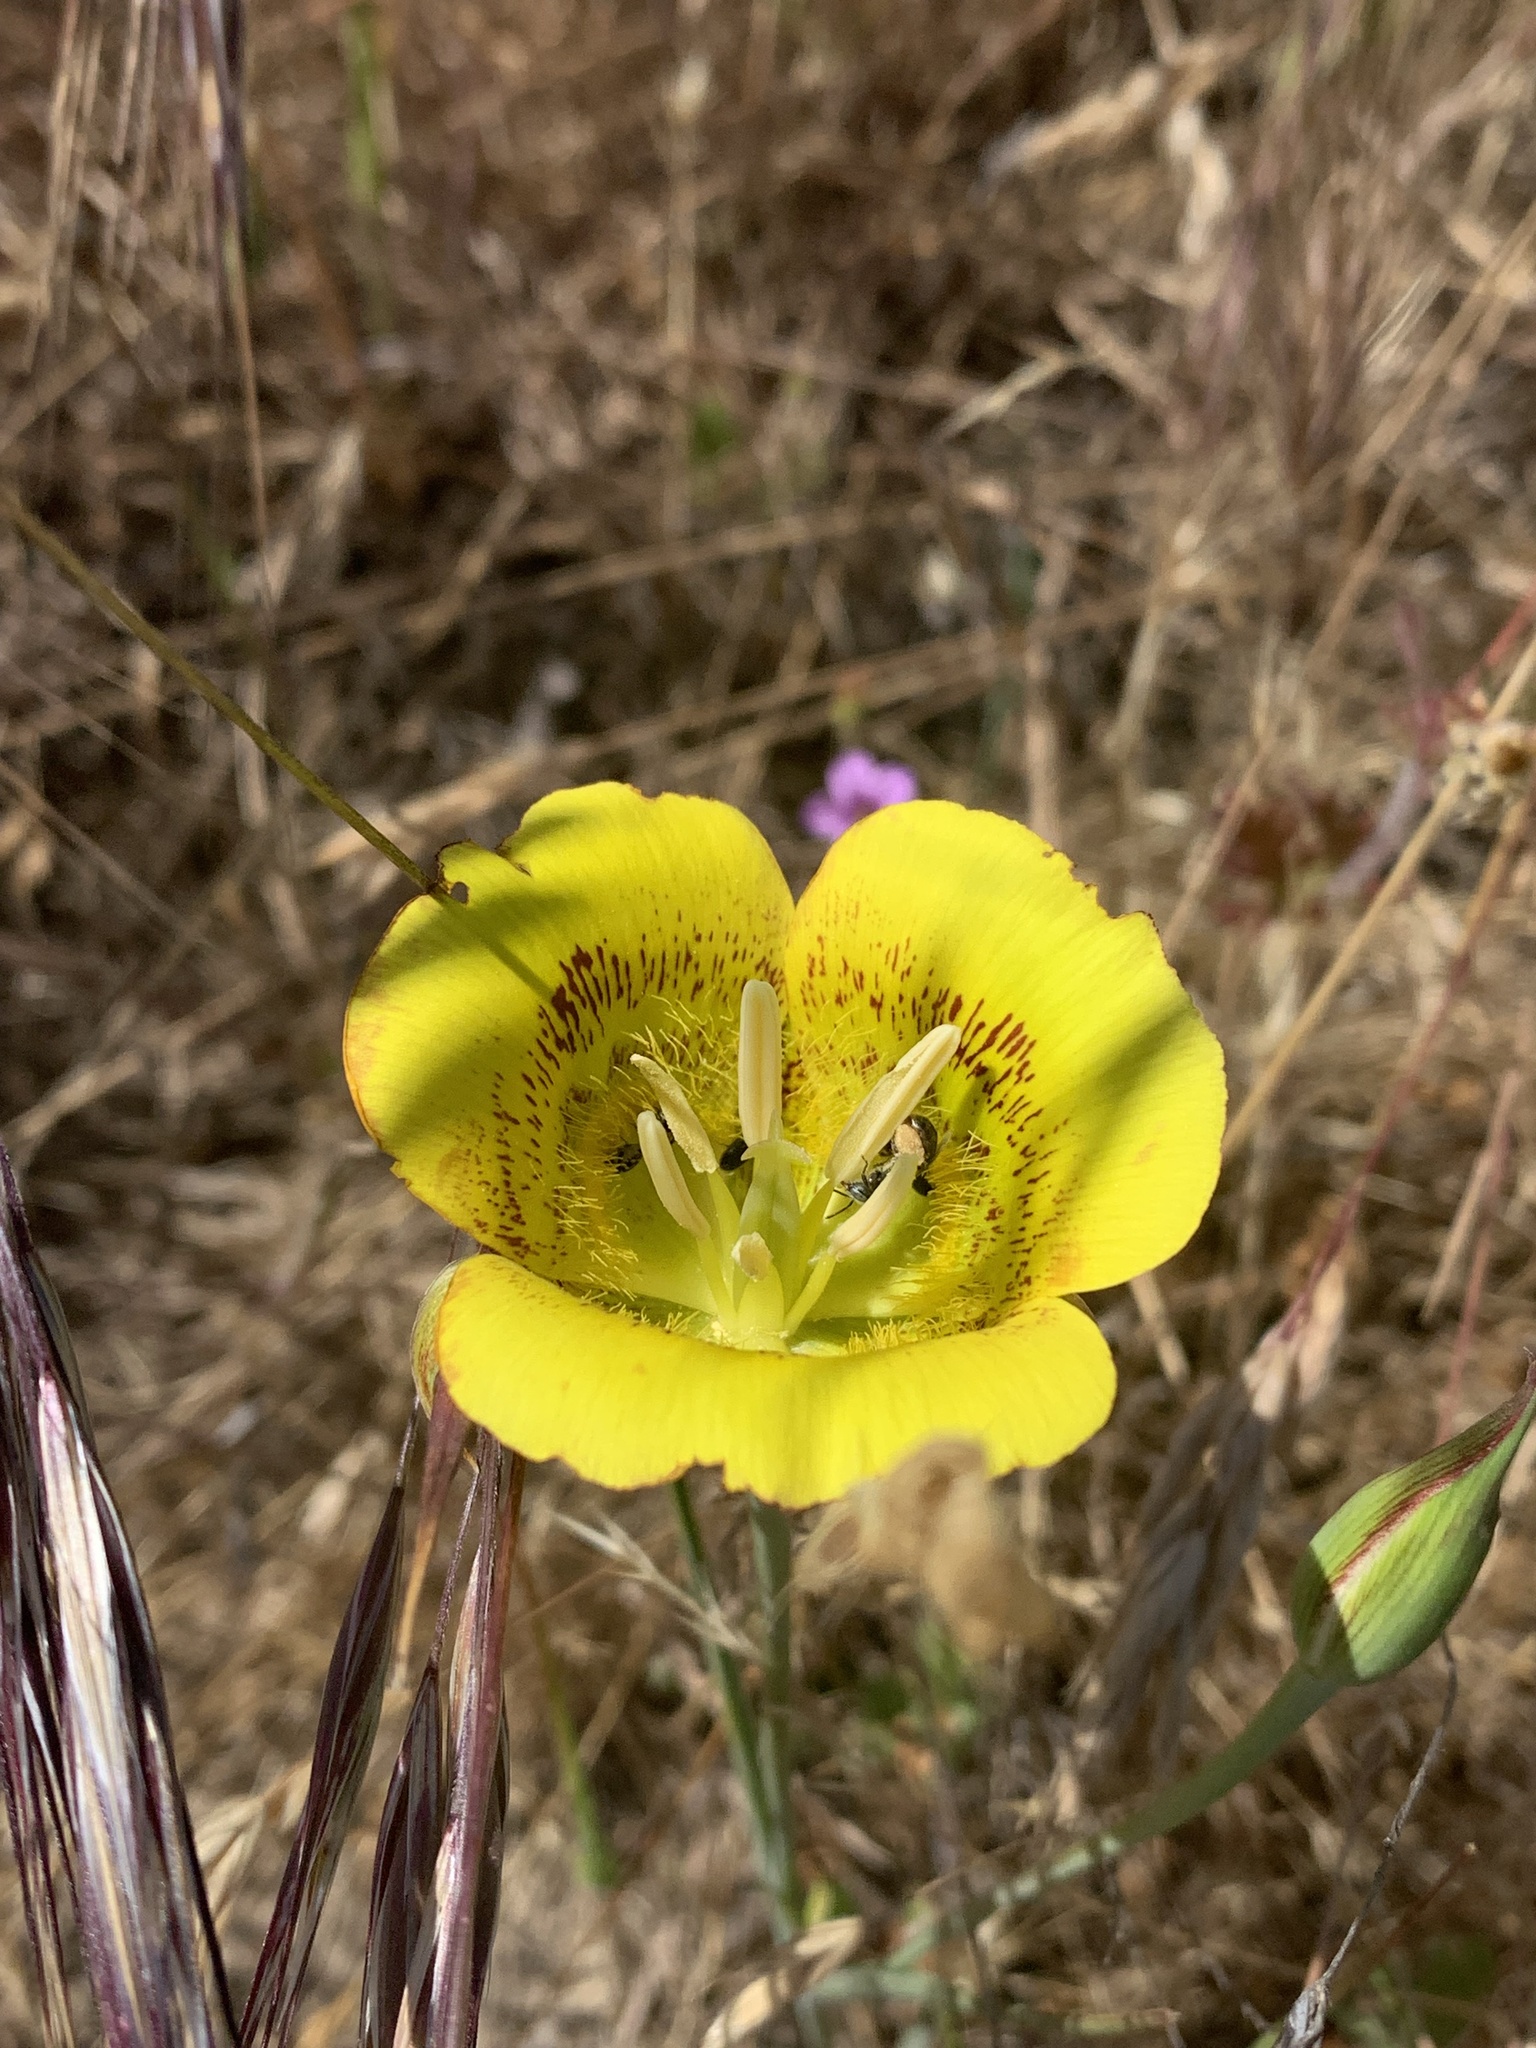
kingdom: Plantae
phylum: Tracheophyta
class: Liliopsida
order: Liliales
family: Liliaceae
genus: Calochortus
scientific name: Calochortus luteus
